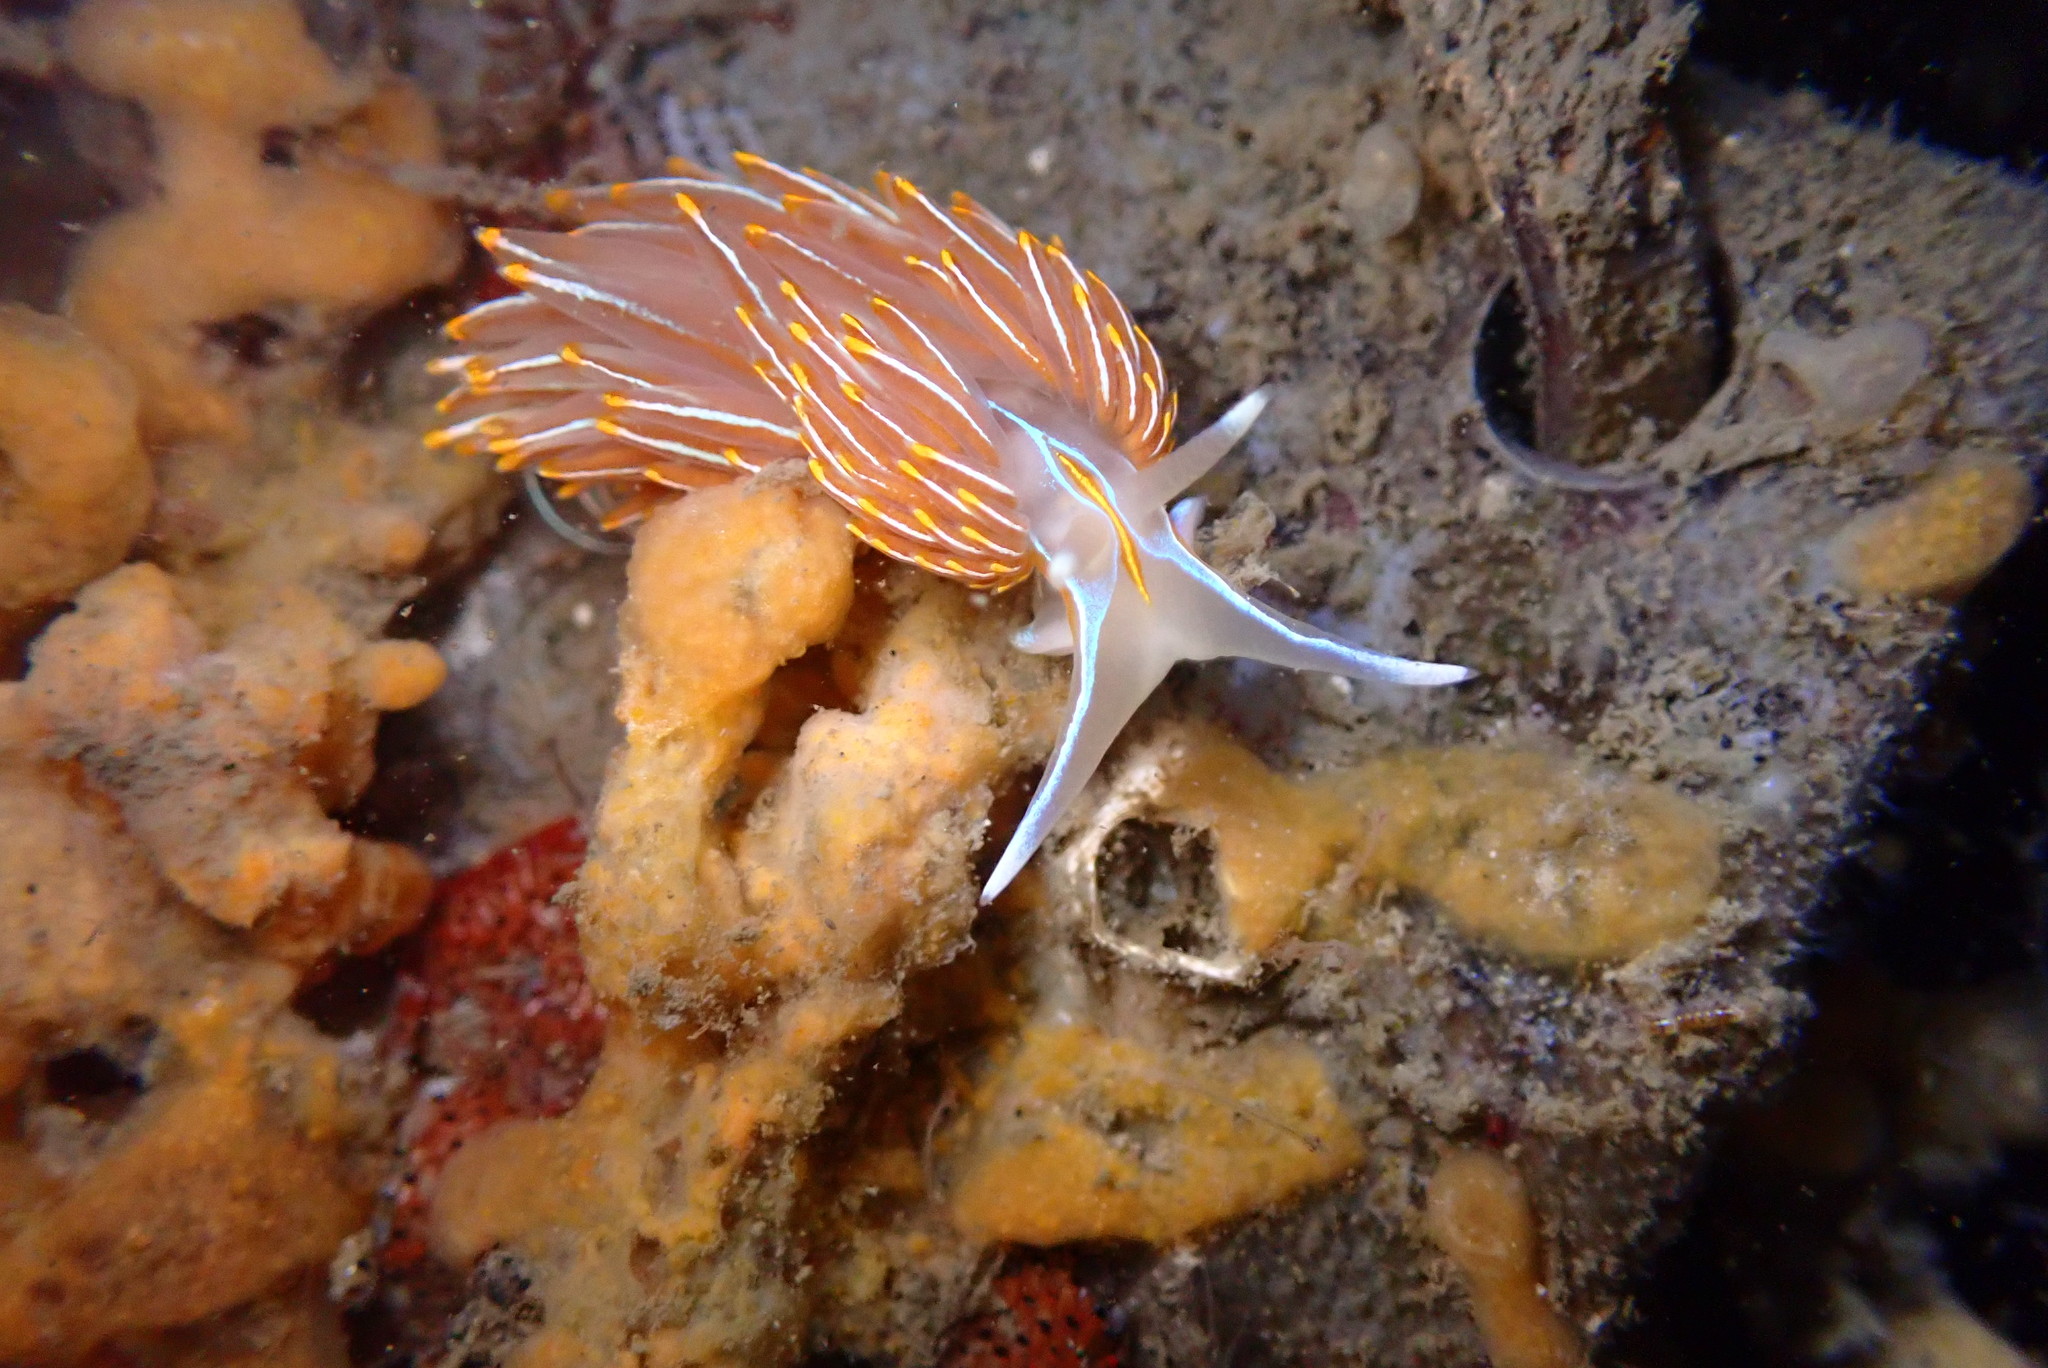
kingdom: Animalia
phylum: Mollusca
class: Gastropoda
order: Nudibranchia
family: Myrrhinidae
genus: Hermissenda
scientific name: Hermissenda crassicornis
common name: Hermissenda
